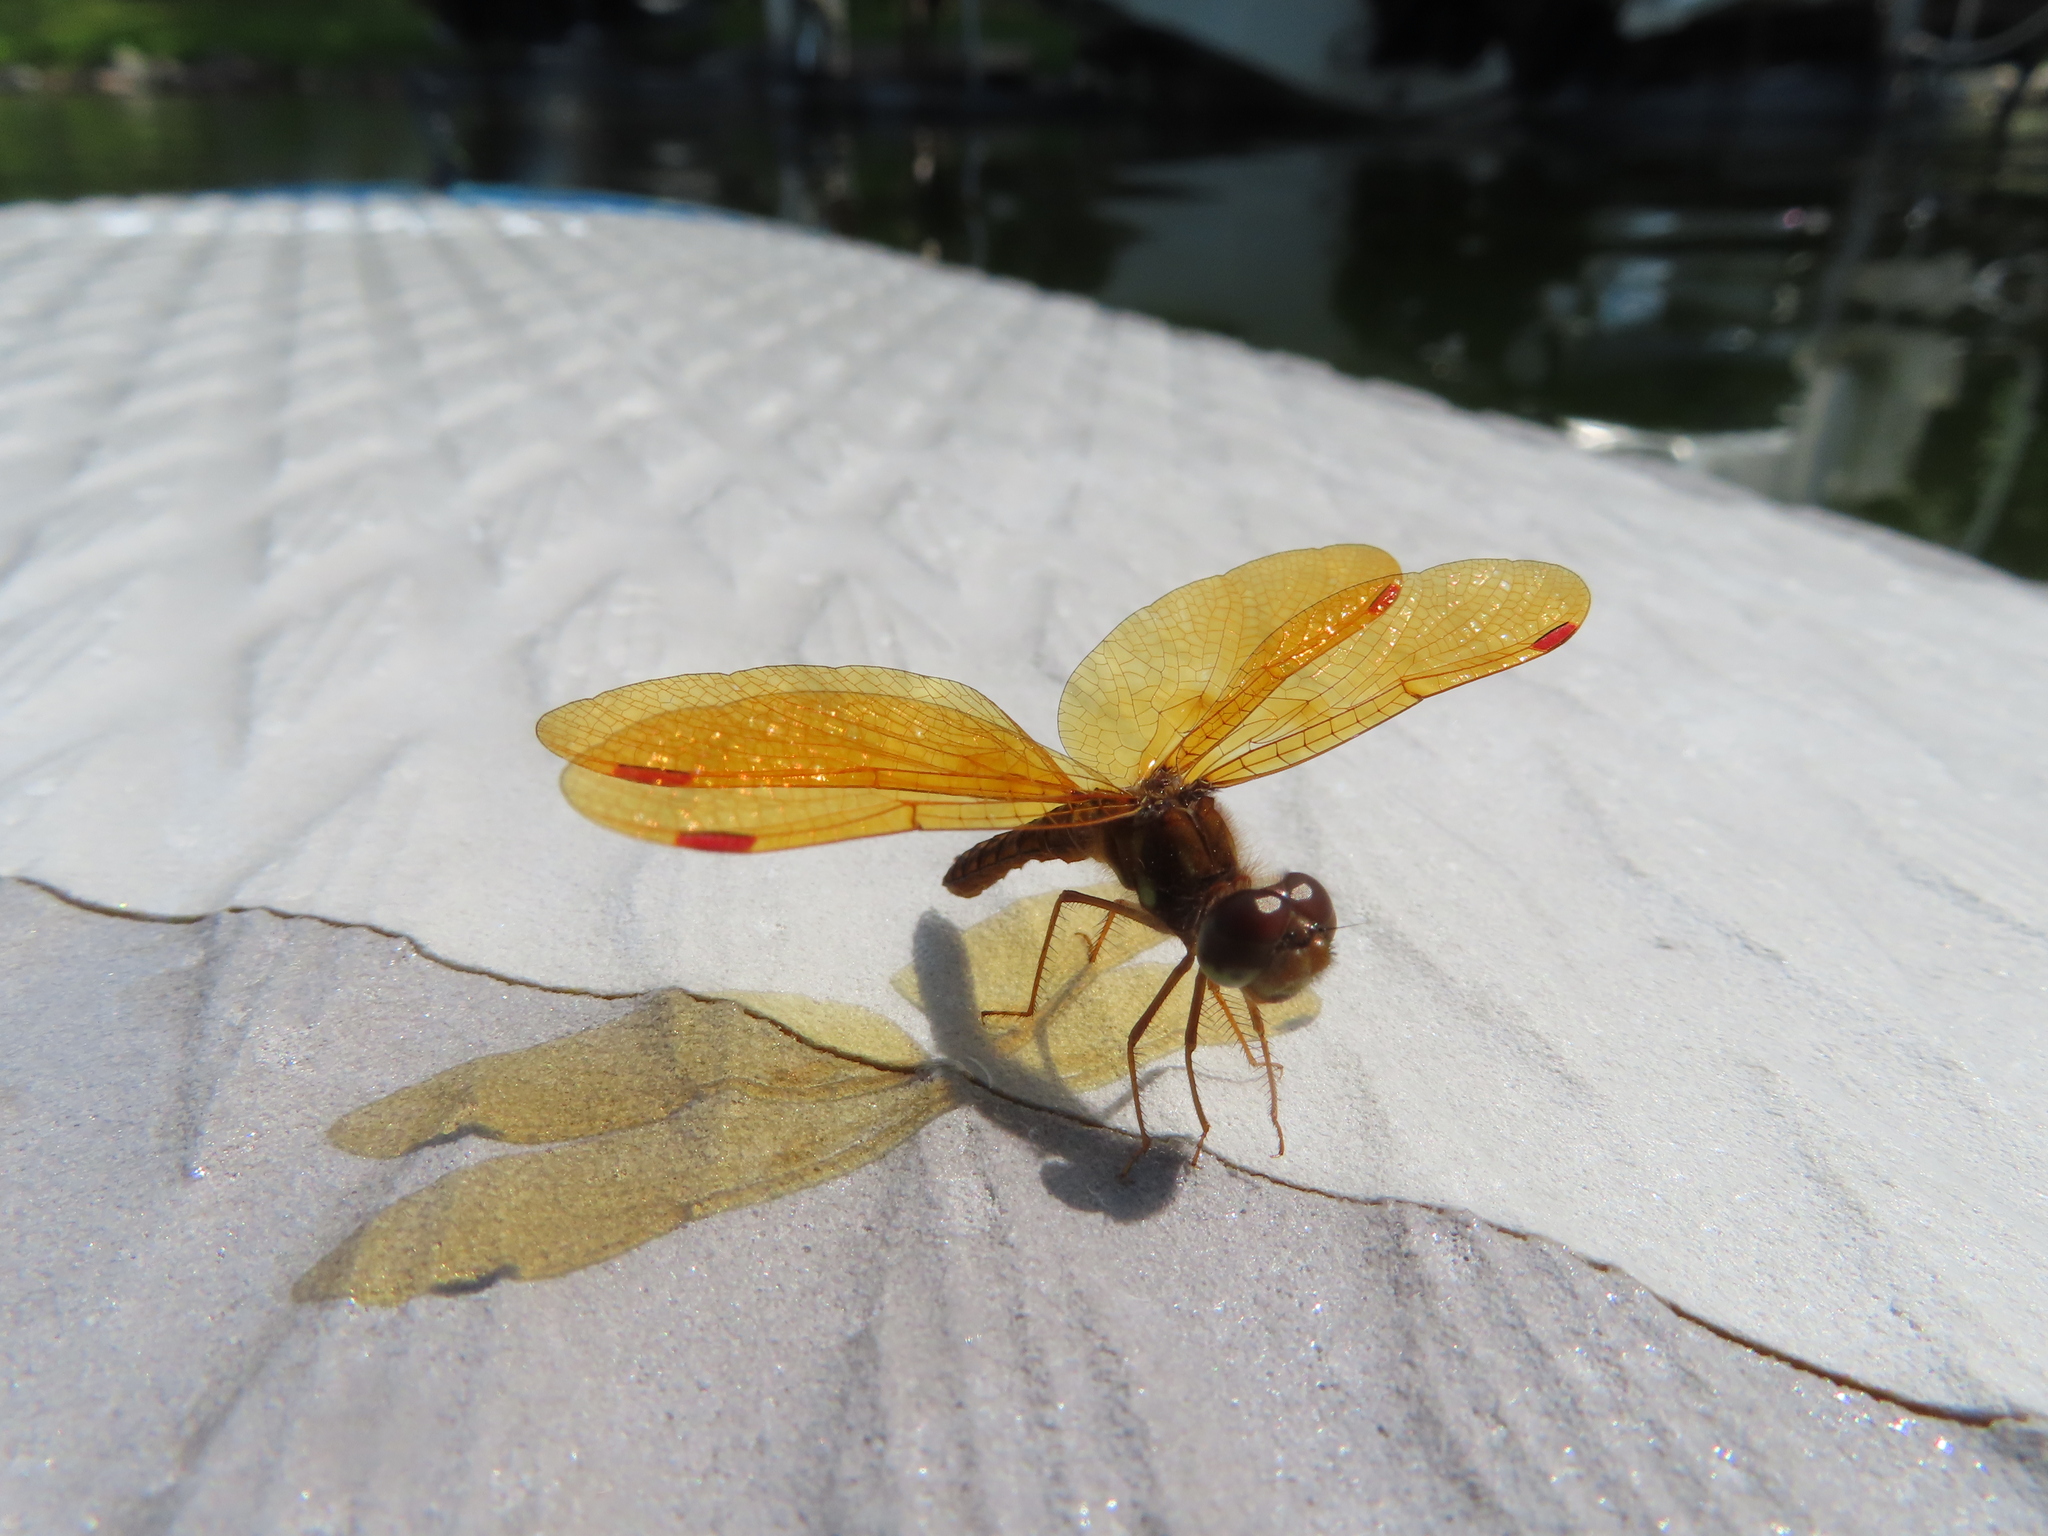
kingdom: Animalia
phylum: Arthropoda
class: Insecta
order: Odonata
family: Libellulidae
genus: Perithemis
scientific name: Perithemis tenera
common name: Eastern amberwing
